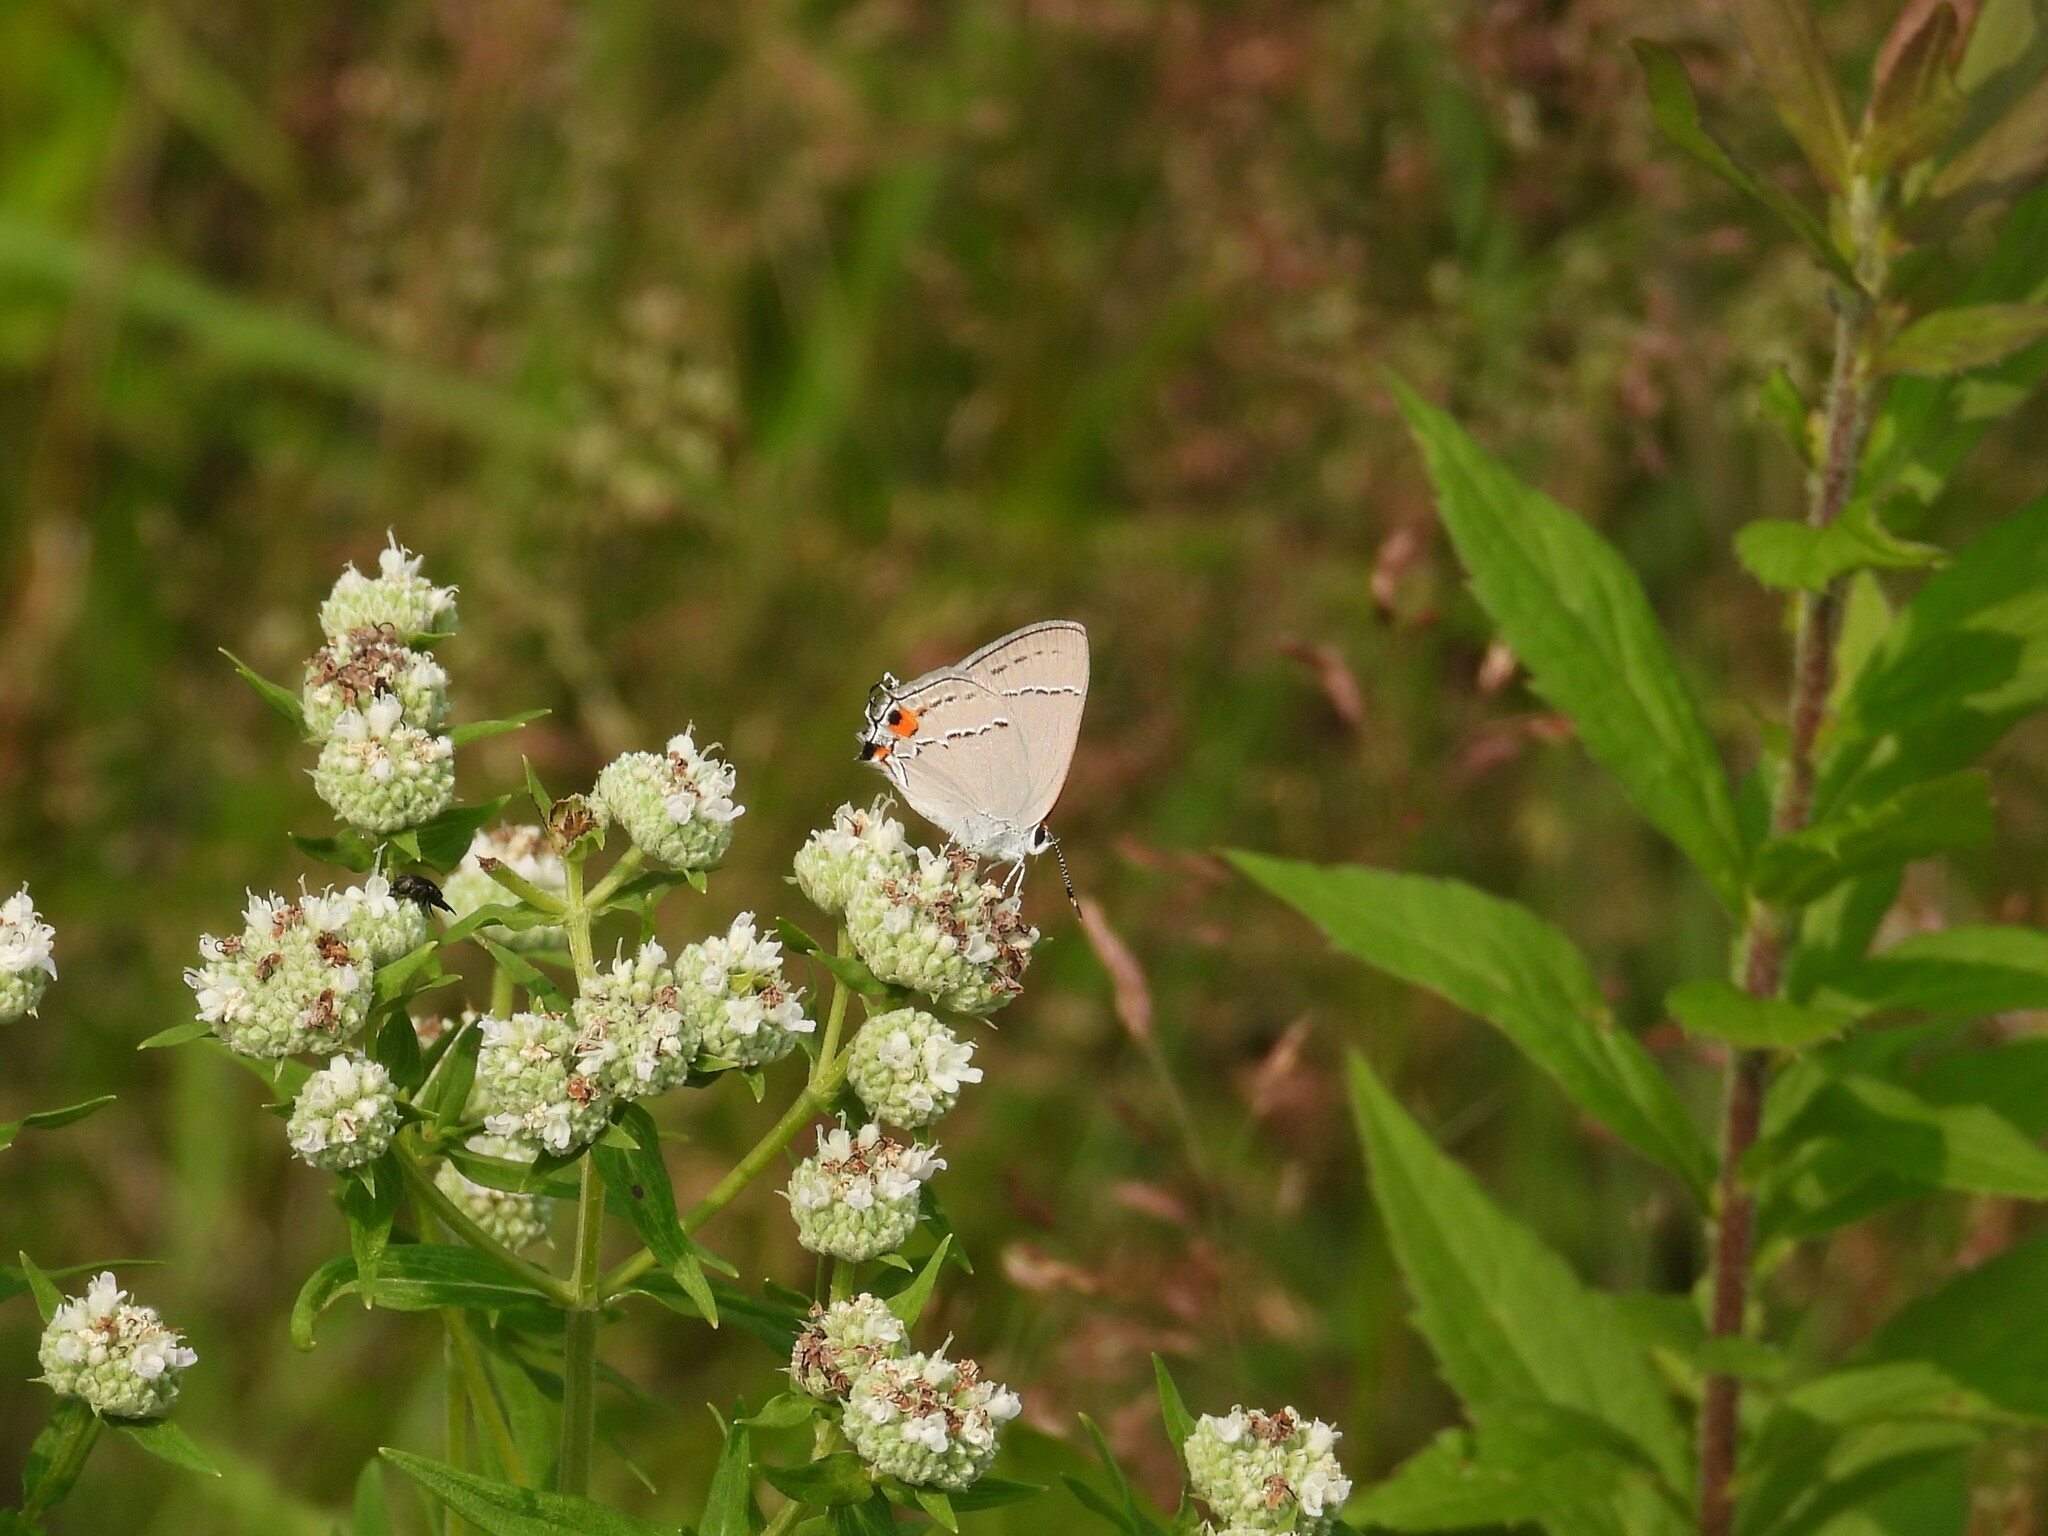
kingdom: Animalia
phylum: Arthropoda
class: Insecta
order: Lepidoptera
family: Lycaenidae
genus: Strymon
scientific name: Strymon melinus
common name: Gray hairstreak
